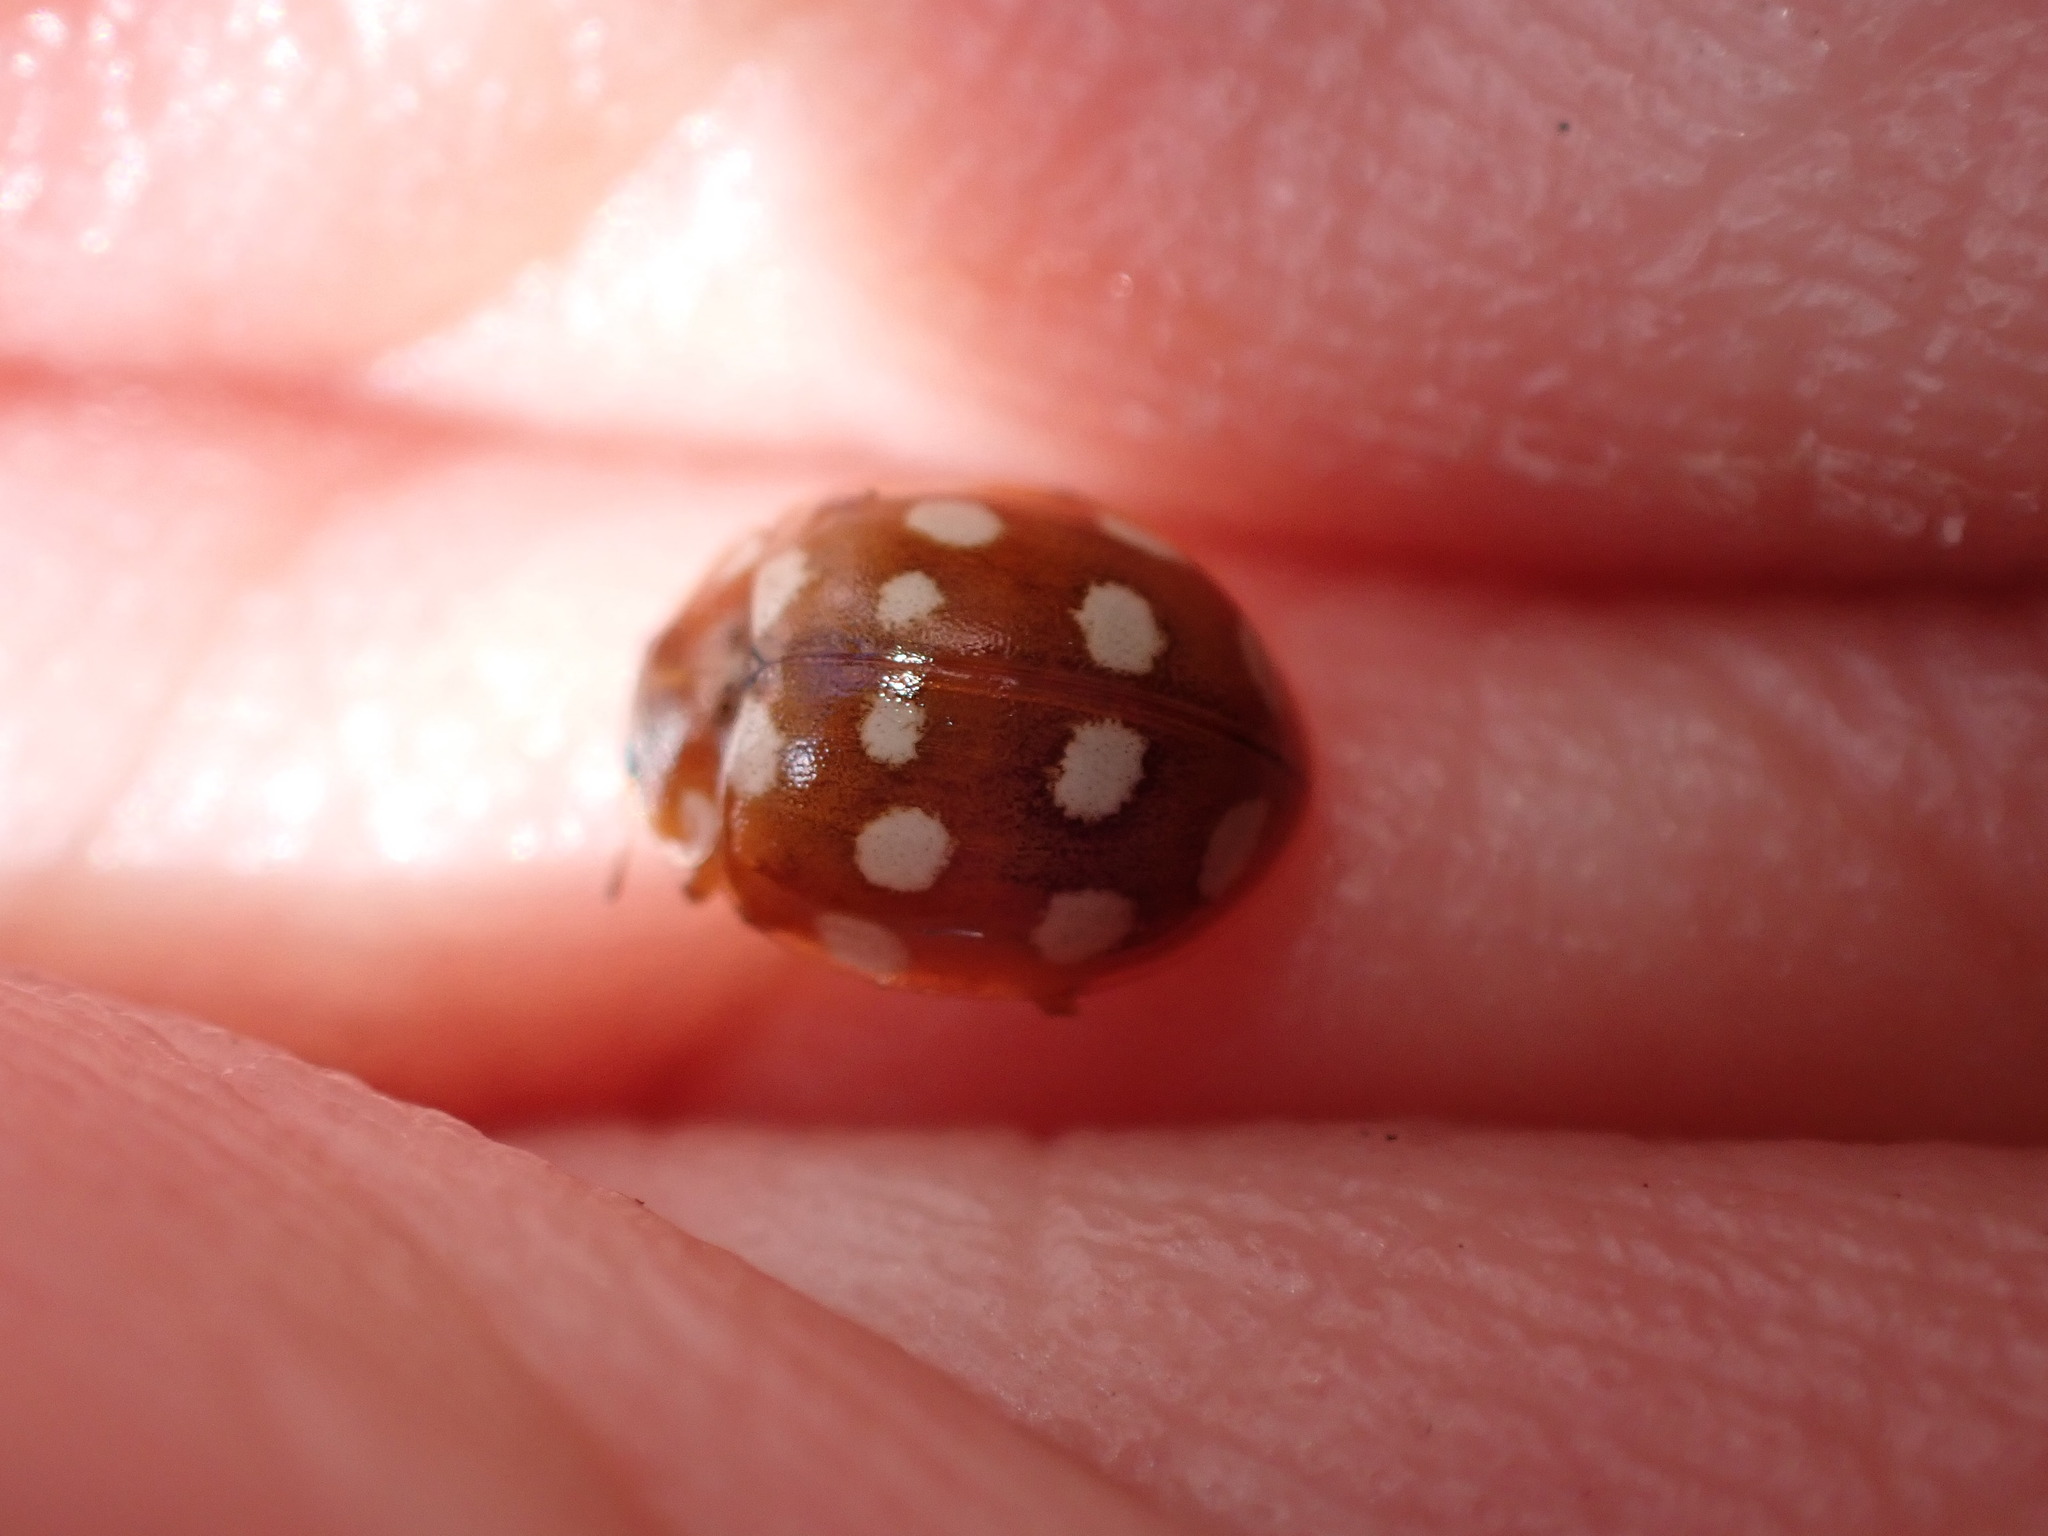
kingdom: Animalia
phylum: Arthropoda
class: Insecta
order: Coleoptera
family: Coccinellidae
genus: Calvia
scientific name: Calvia quatuordecimguttata
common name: Cream-spot ladybird
